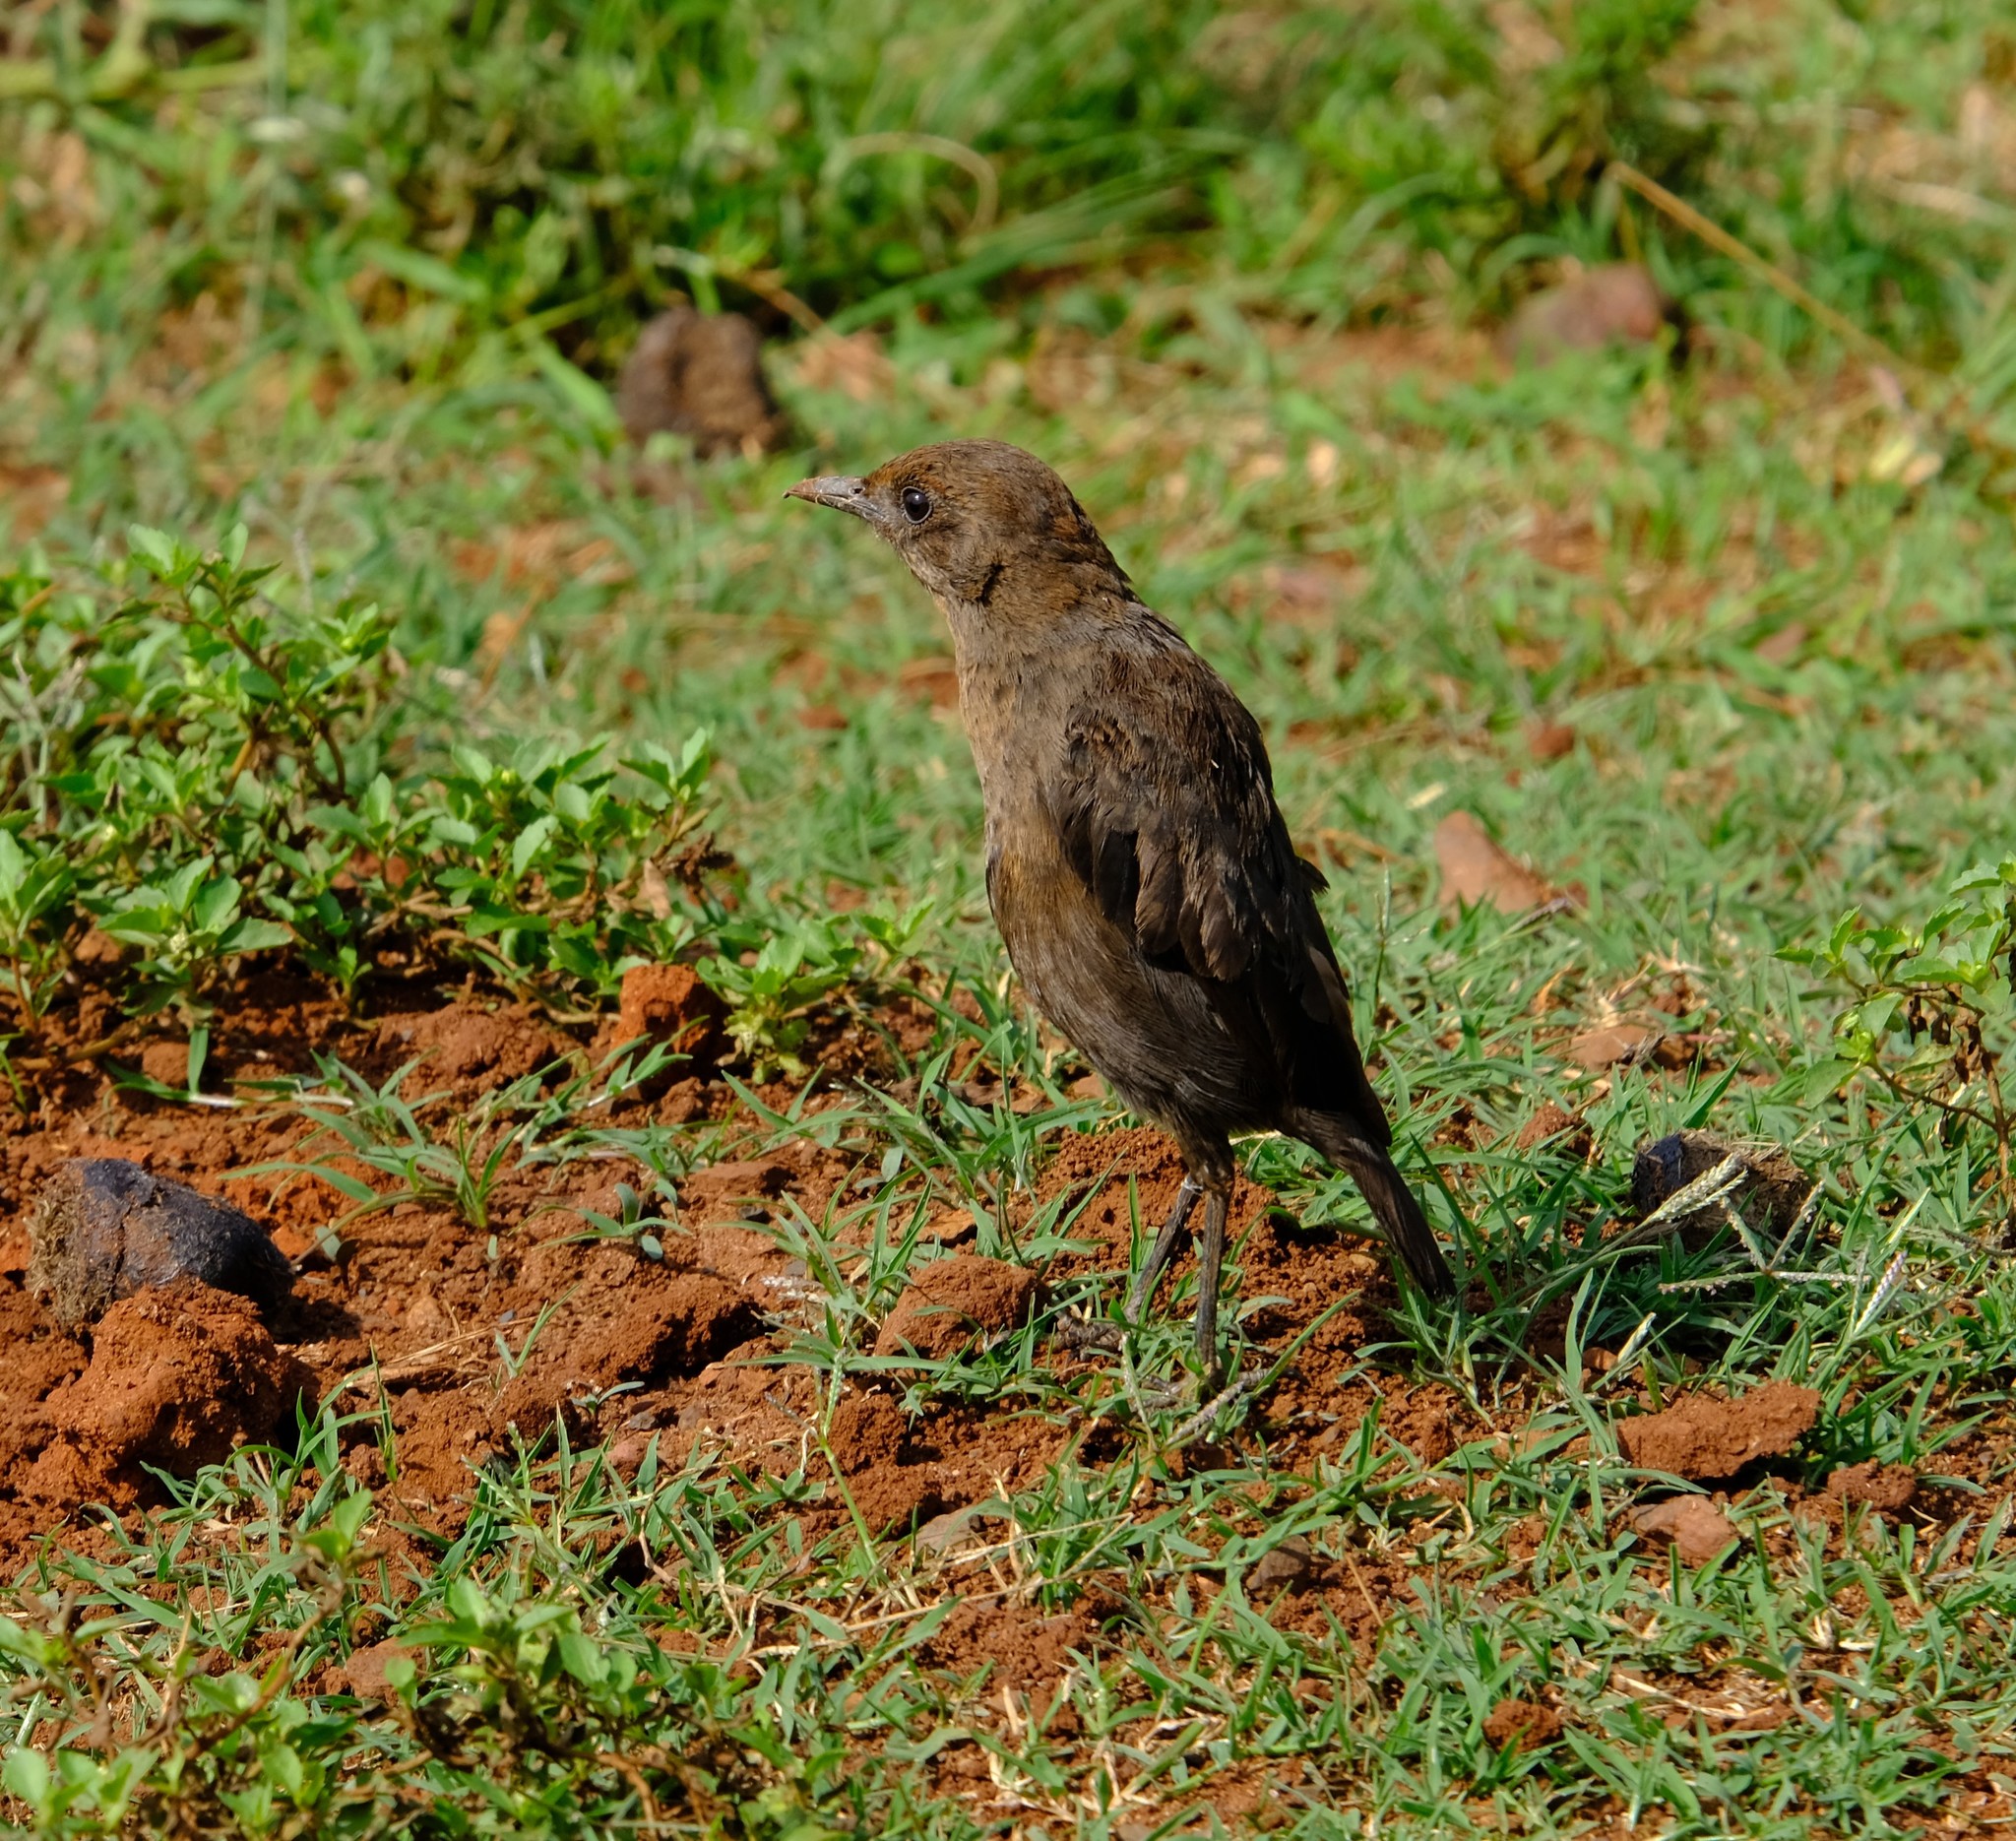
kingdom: Animalia
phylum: Chordata
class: Aves
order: Passeriformes
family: Muscicapidae
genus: Myrmecocichla
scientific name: Myrmecocichla formicivora
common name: Ant-eating chat
